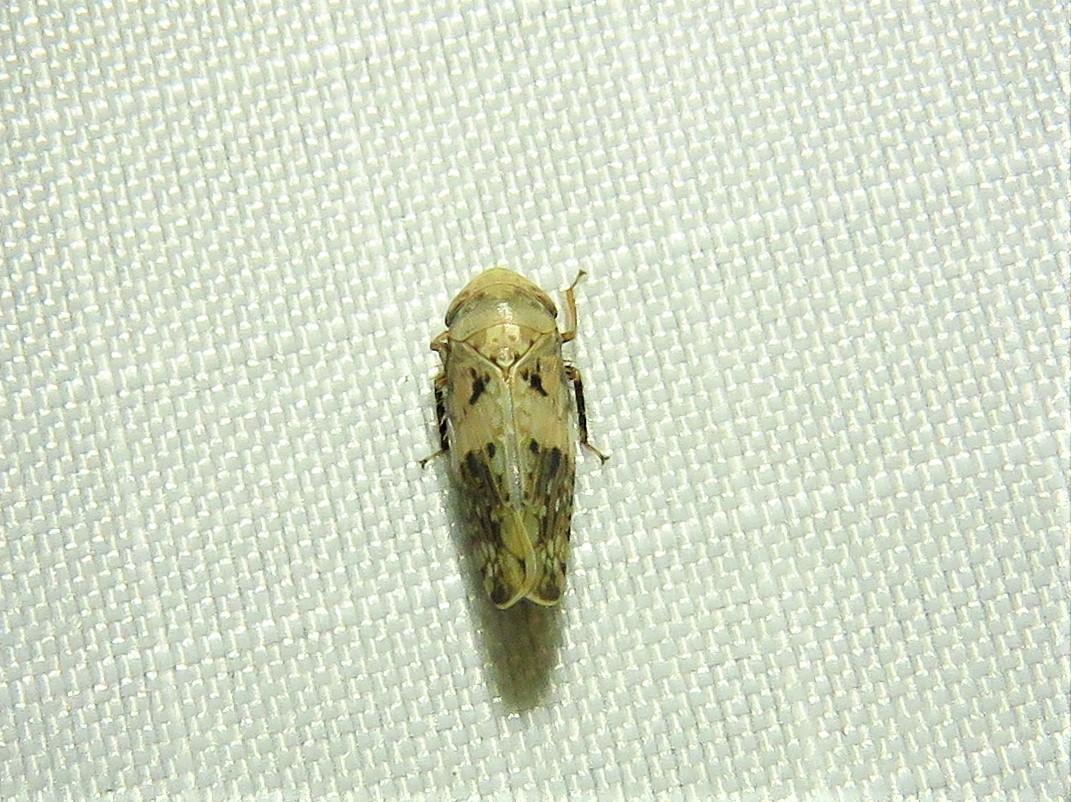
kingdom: Animalia
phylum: Arthropoda
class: Insecta
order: Hemiptera
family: Cicadellidae
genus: Menosoma
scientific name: Menosoma cinctum
